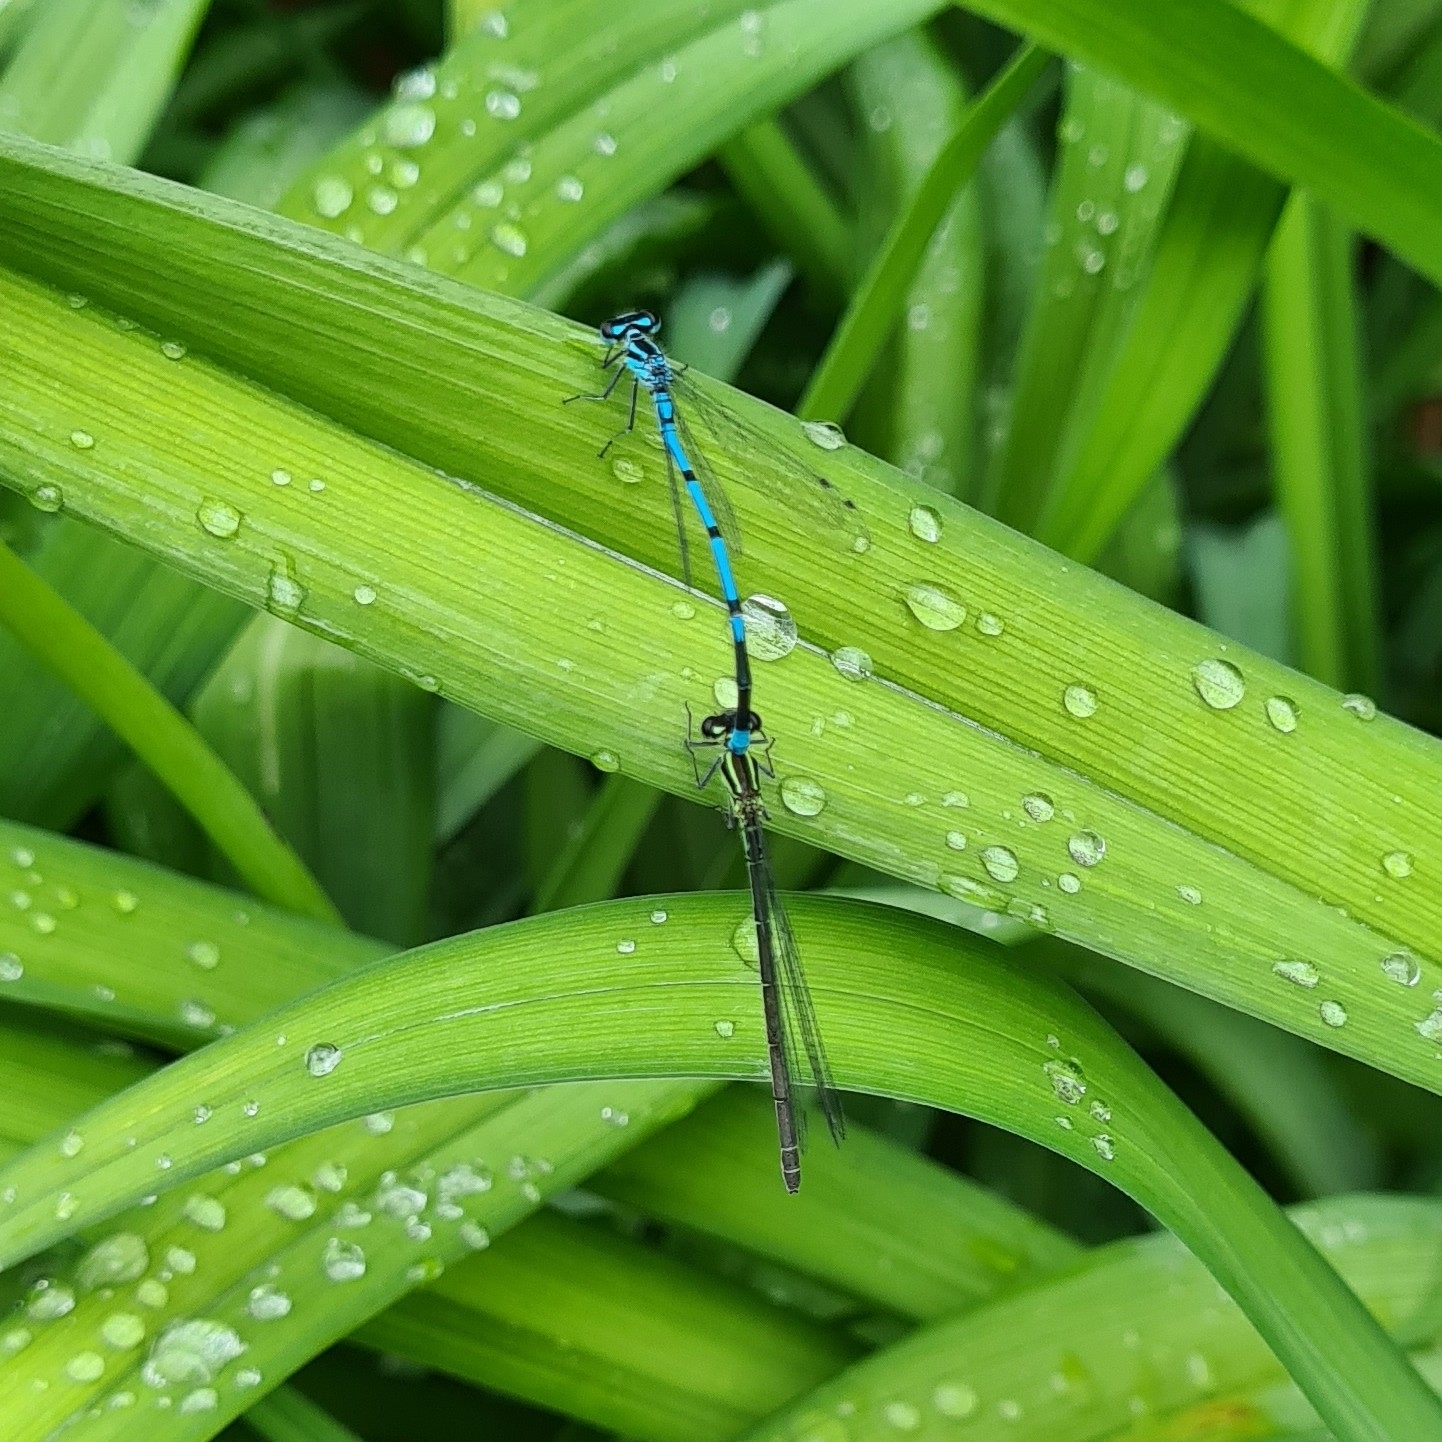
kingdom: Animalia
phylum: Arthropoda
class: Insecta
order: Odonata
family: Coenagrionidae
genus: Coenagrion
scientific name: Coenagrion puella
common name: Azure damselfly
